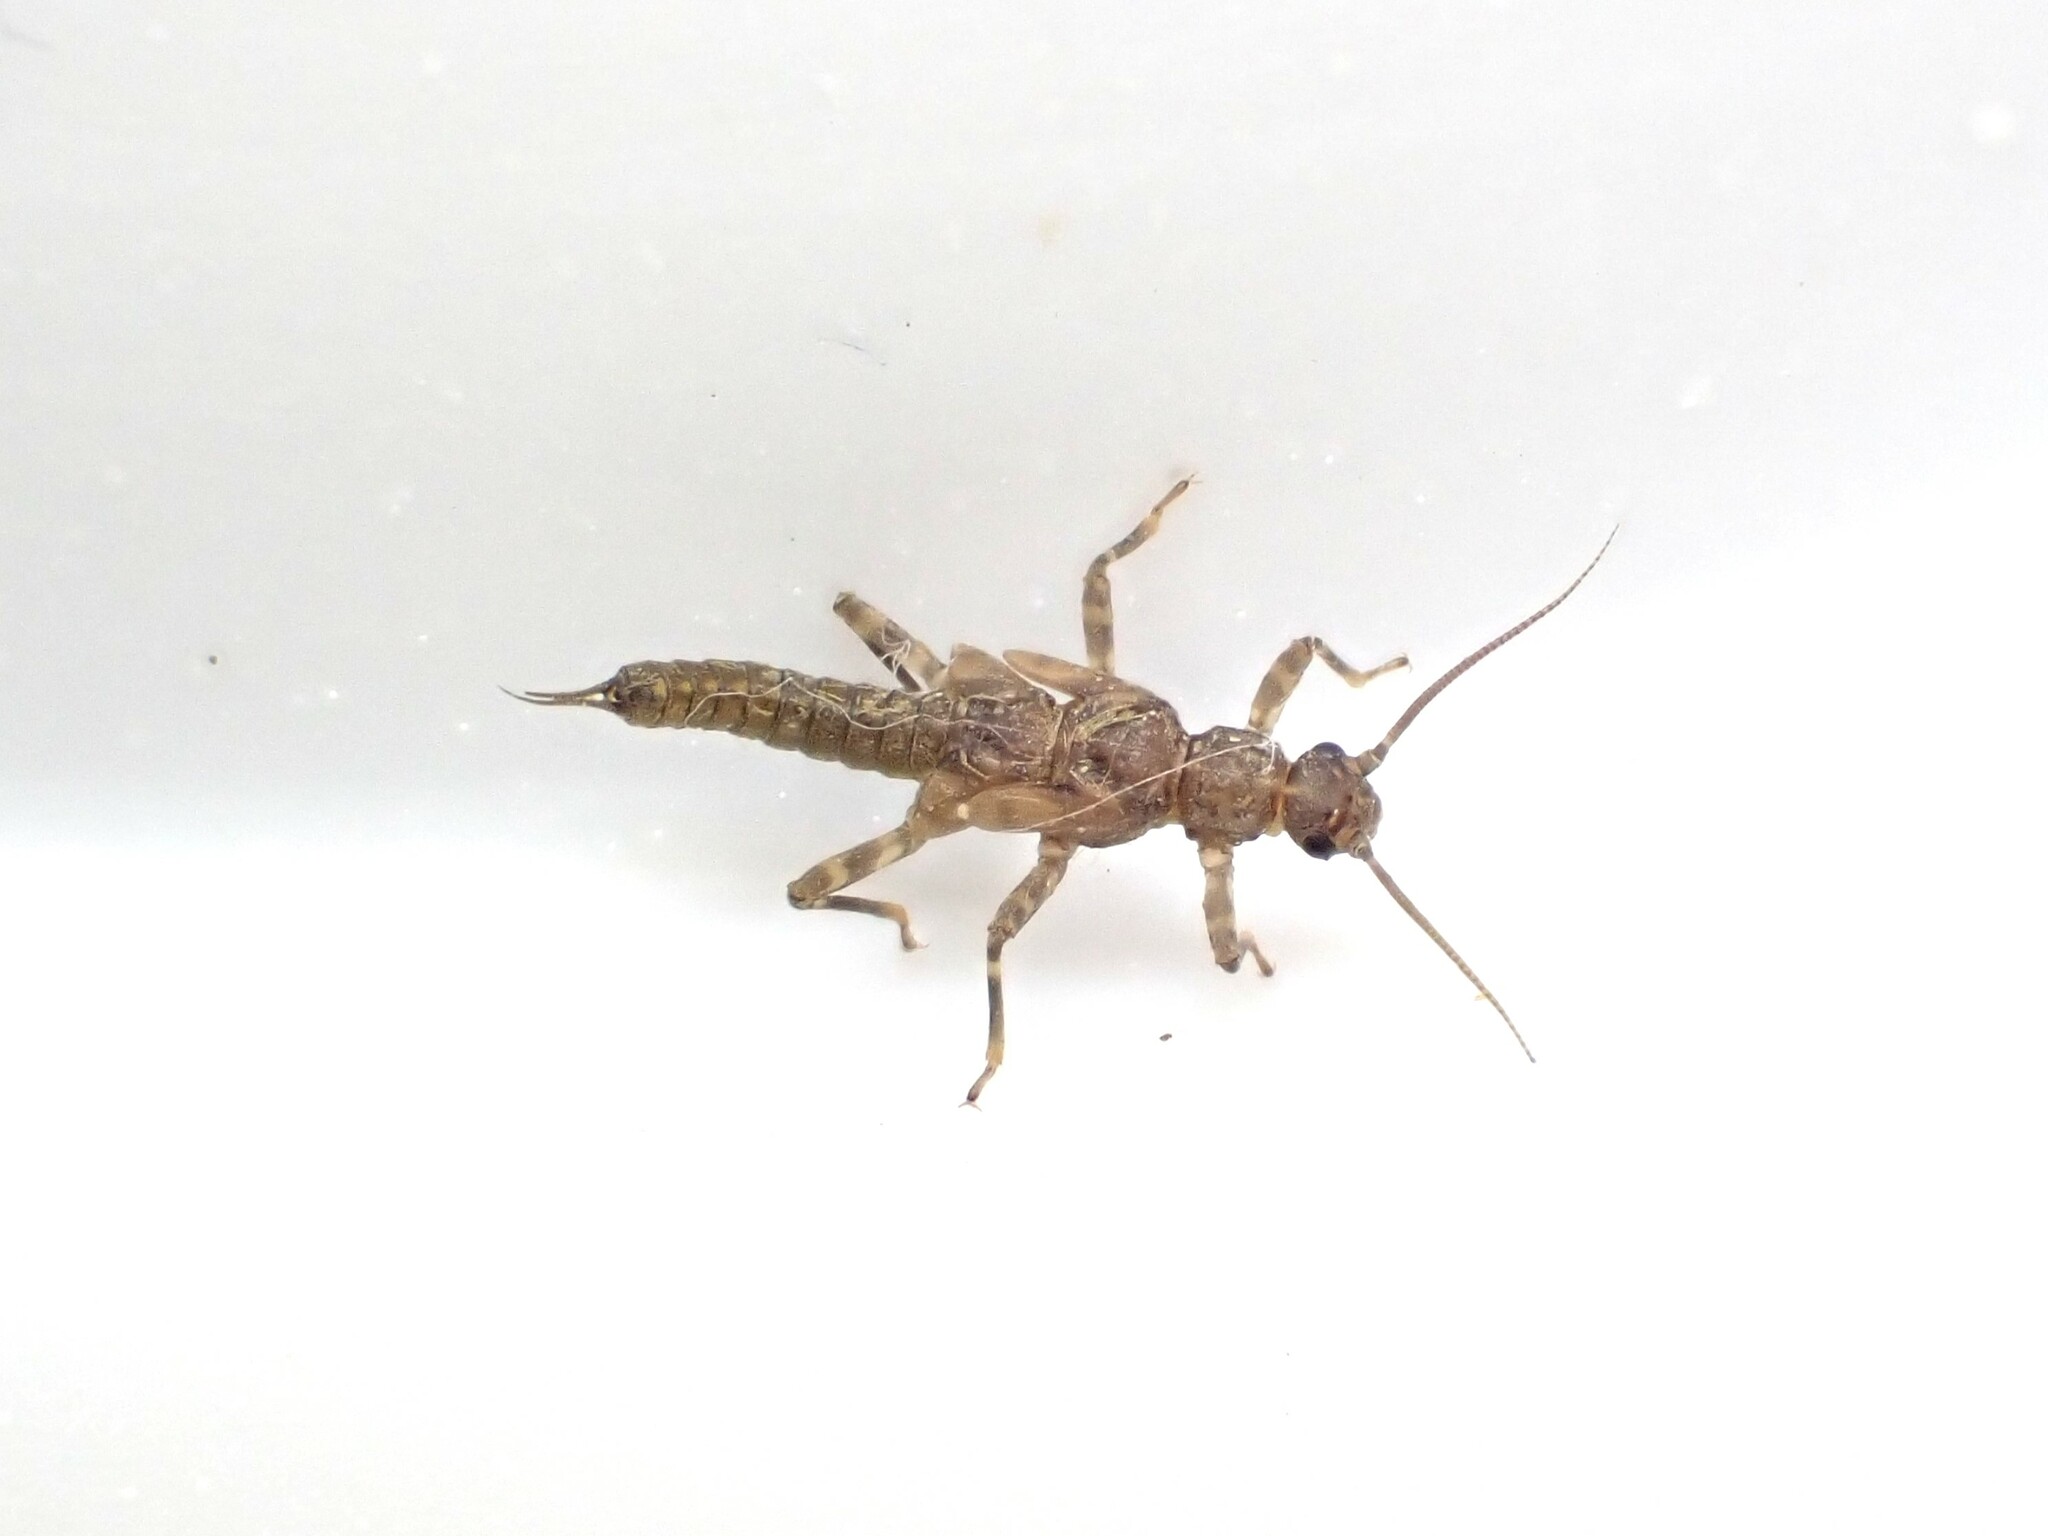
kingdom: Animalia
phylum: Arthropoda
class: Insecta
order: Plecoptera
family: Gripopterygidae
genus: Acroperla
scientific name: Acroperla trivacuata
